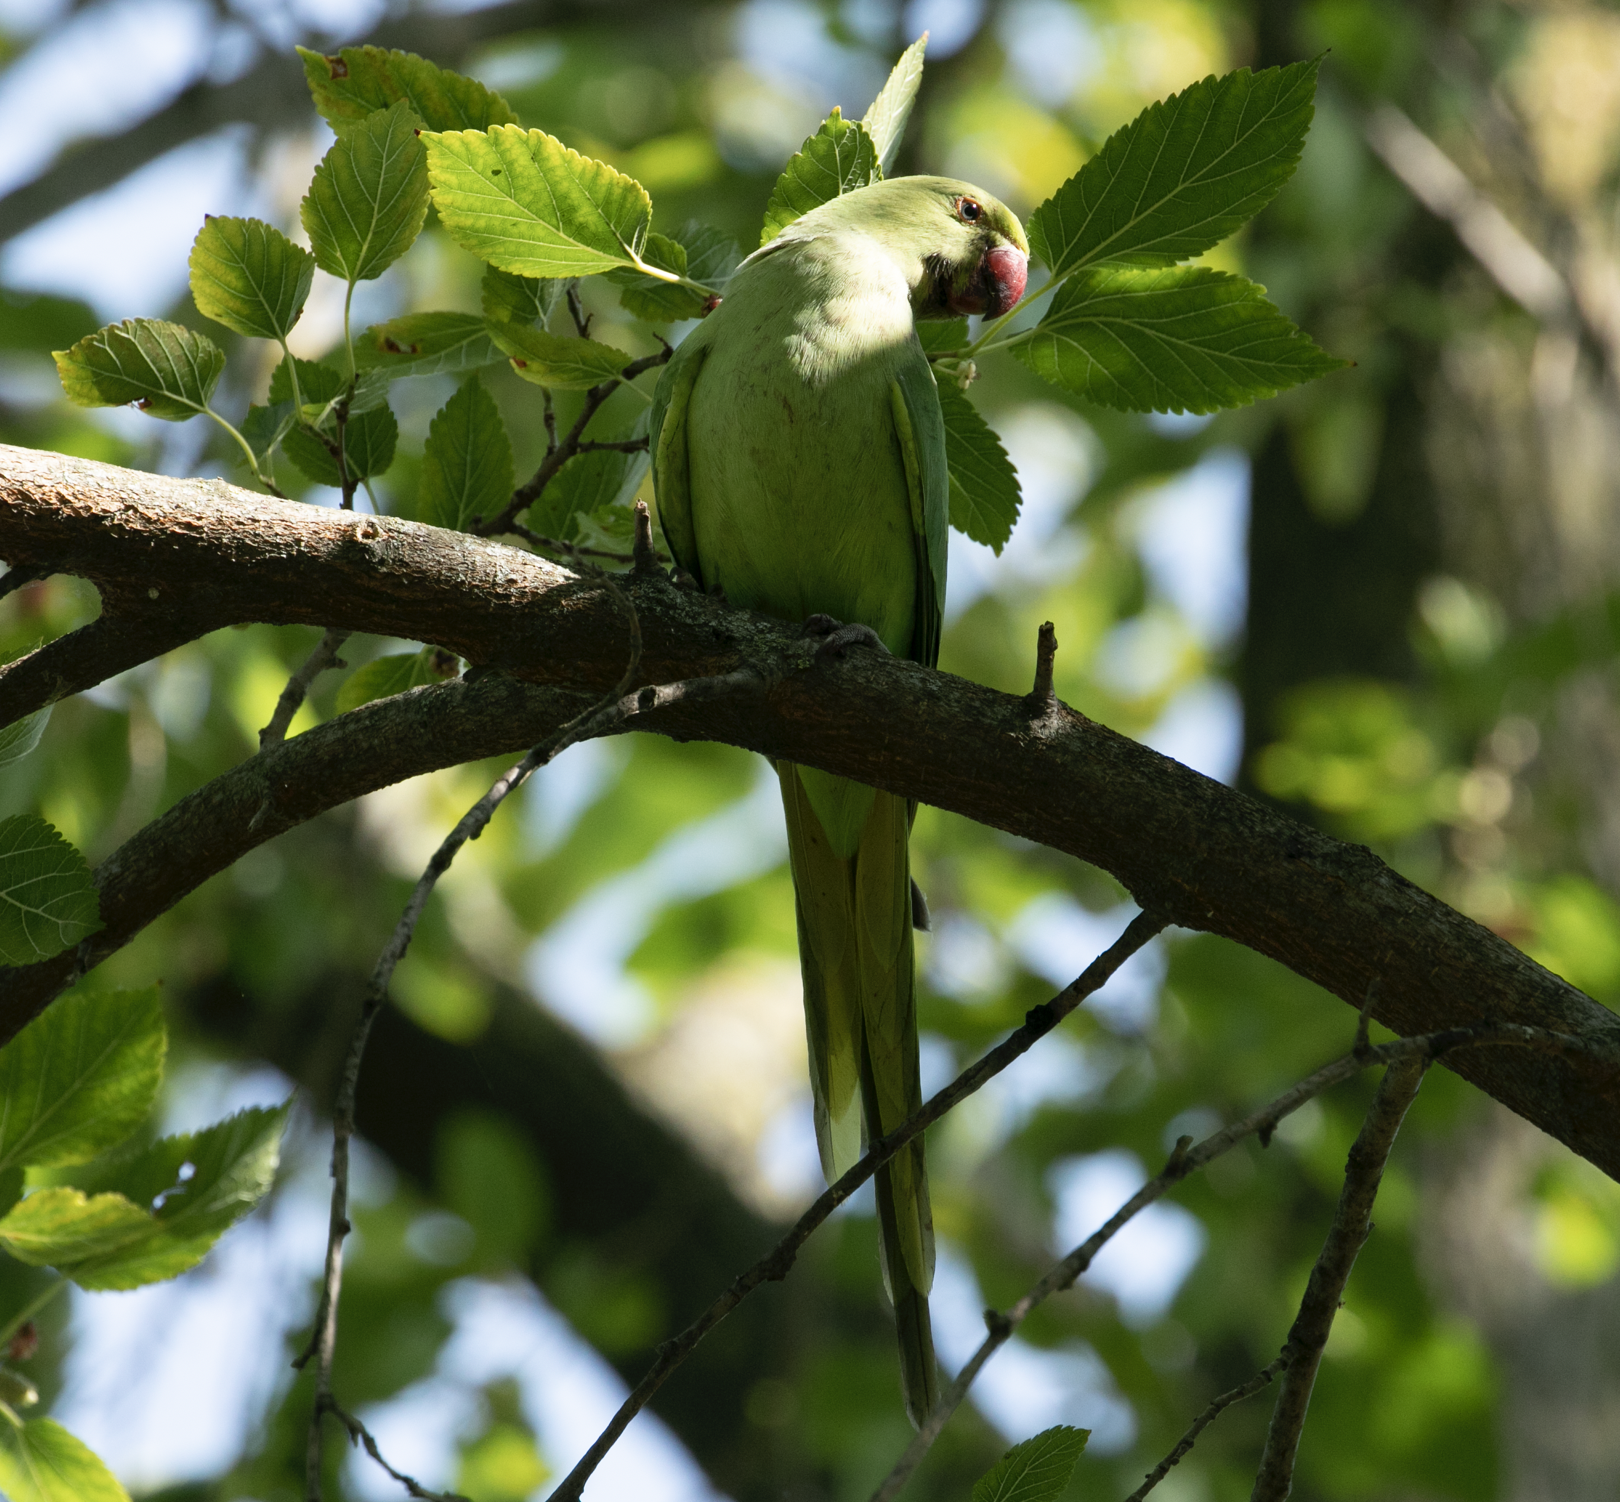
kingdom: Animalia
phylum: Chordata
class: Aves
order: Psittaciformes
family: Psittacidae
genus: Psittacula
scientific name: Psittacula krameri
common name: Rose-ringed parakeet
